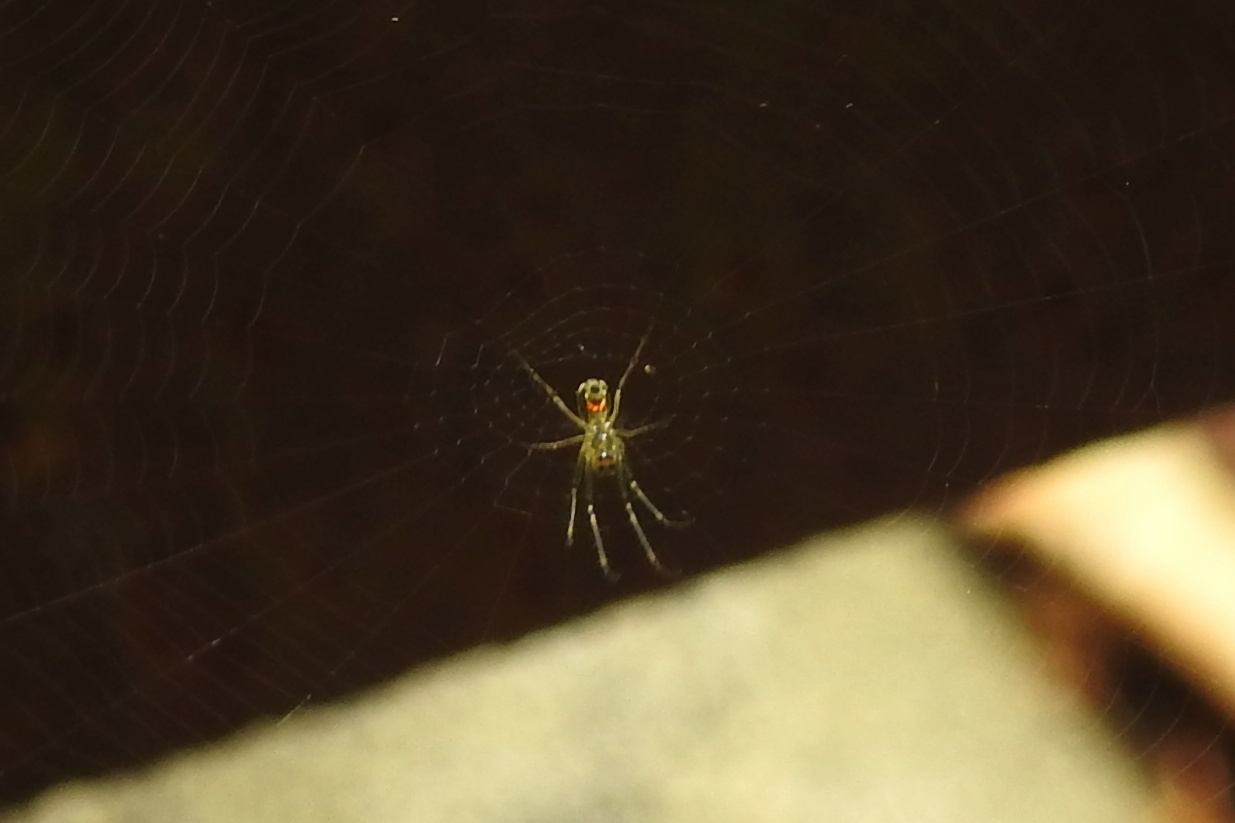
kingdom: Animalia
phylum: Arthropoda
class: Arachnida
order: Araneae
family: Tetragnathidae
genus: Leucauge
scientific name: Leucauge venusta
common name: Longjawed orb weavers
